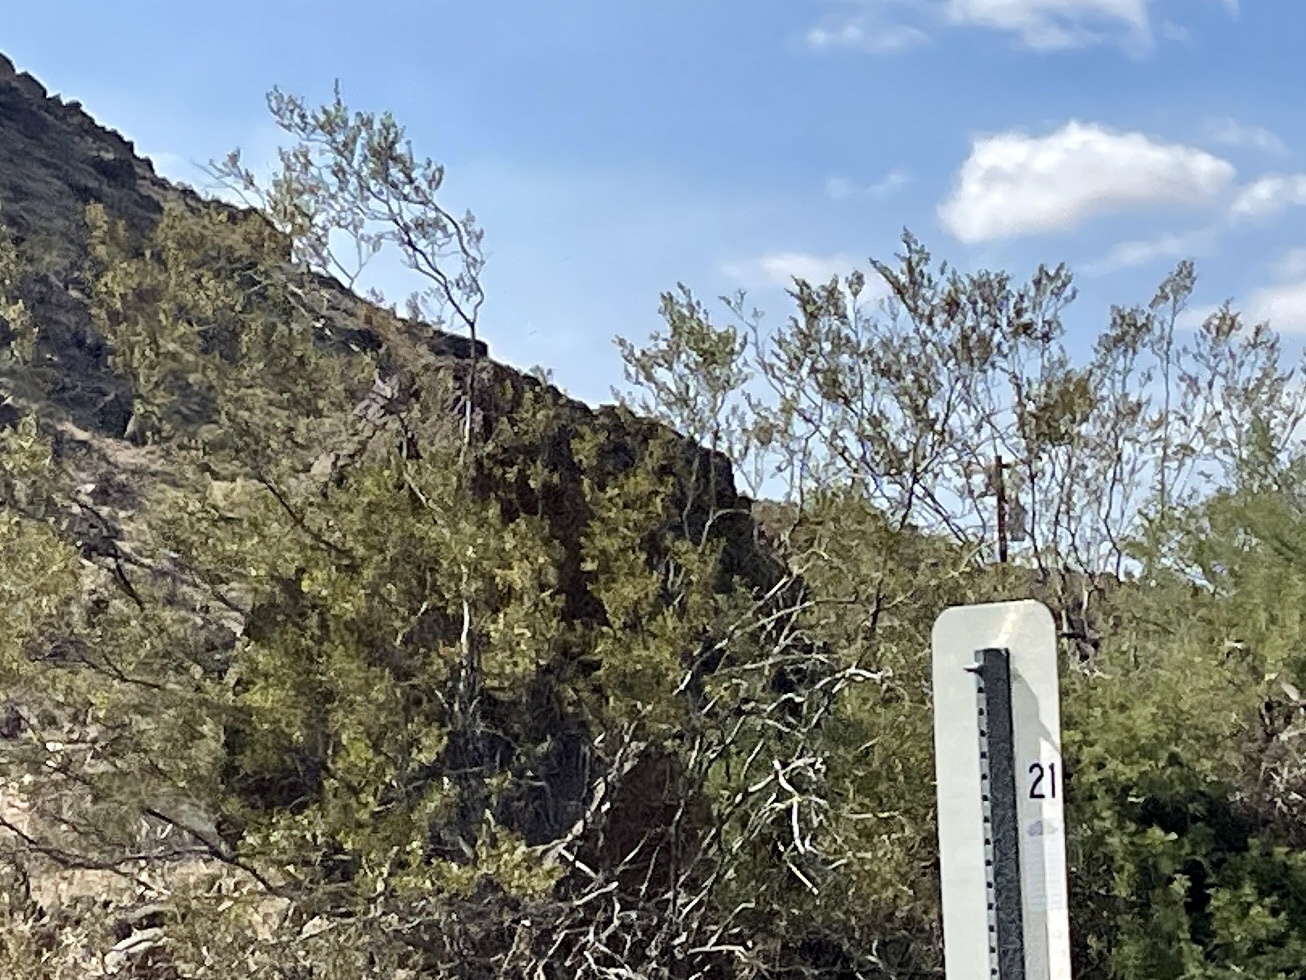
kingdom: Plantae
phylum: Tracheophyta
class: Magnoliopsida
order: Zygophyllales
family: Zygophyllaceae
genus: Larrea
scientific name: Larrea tridentata
